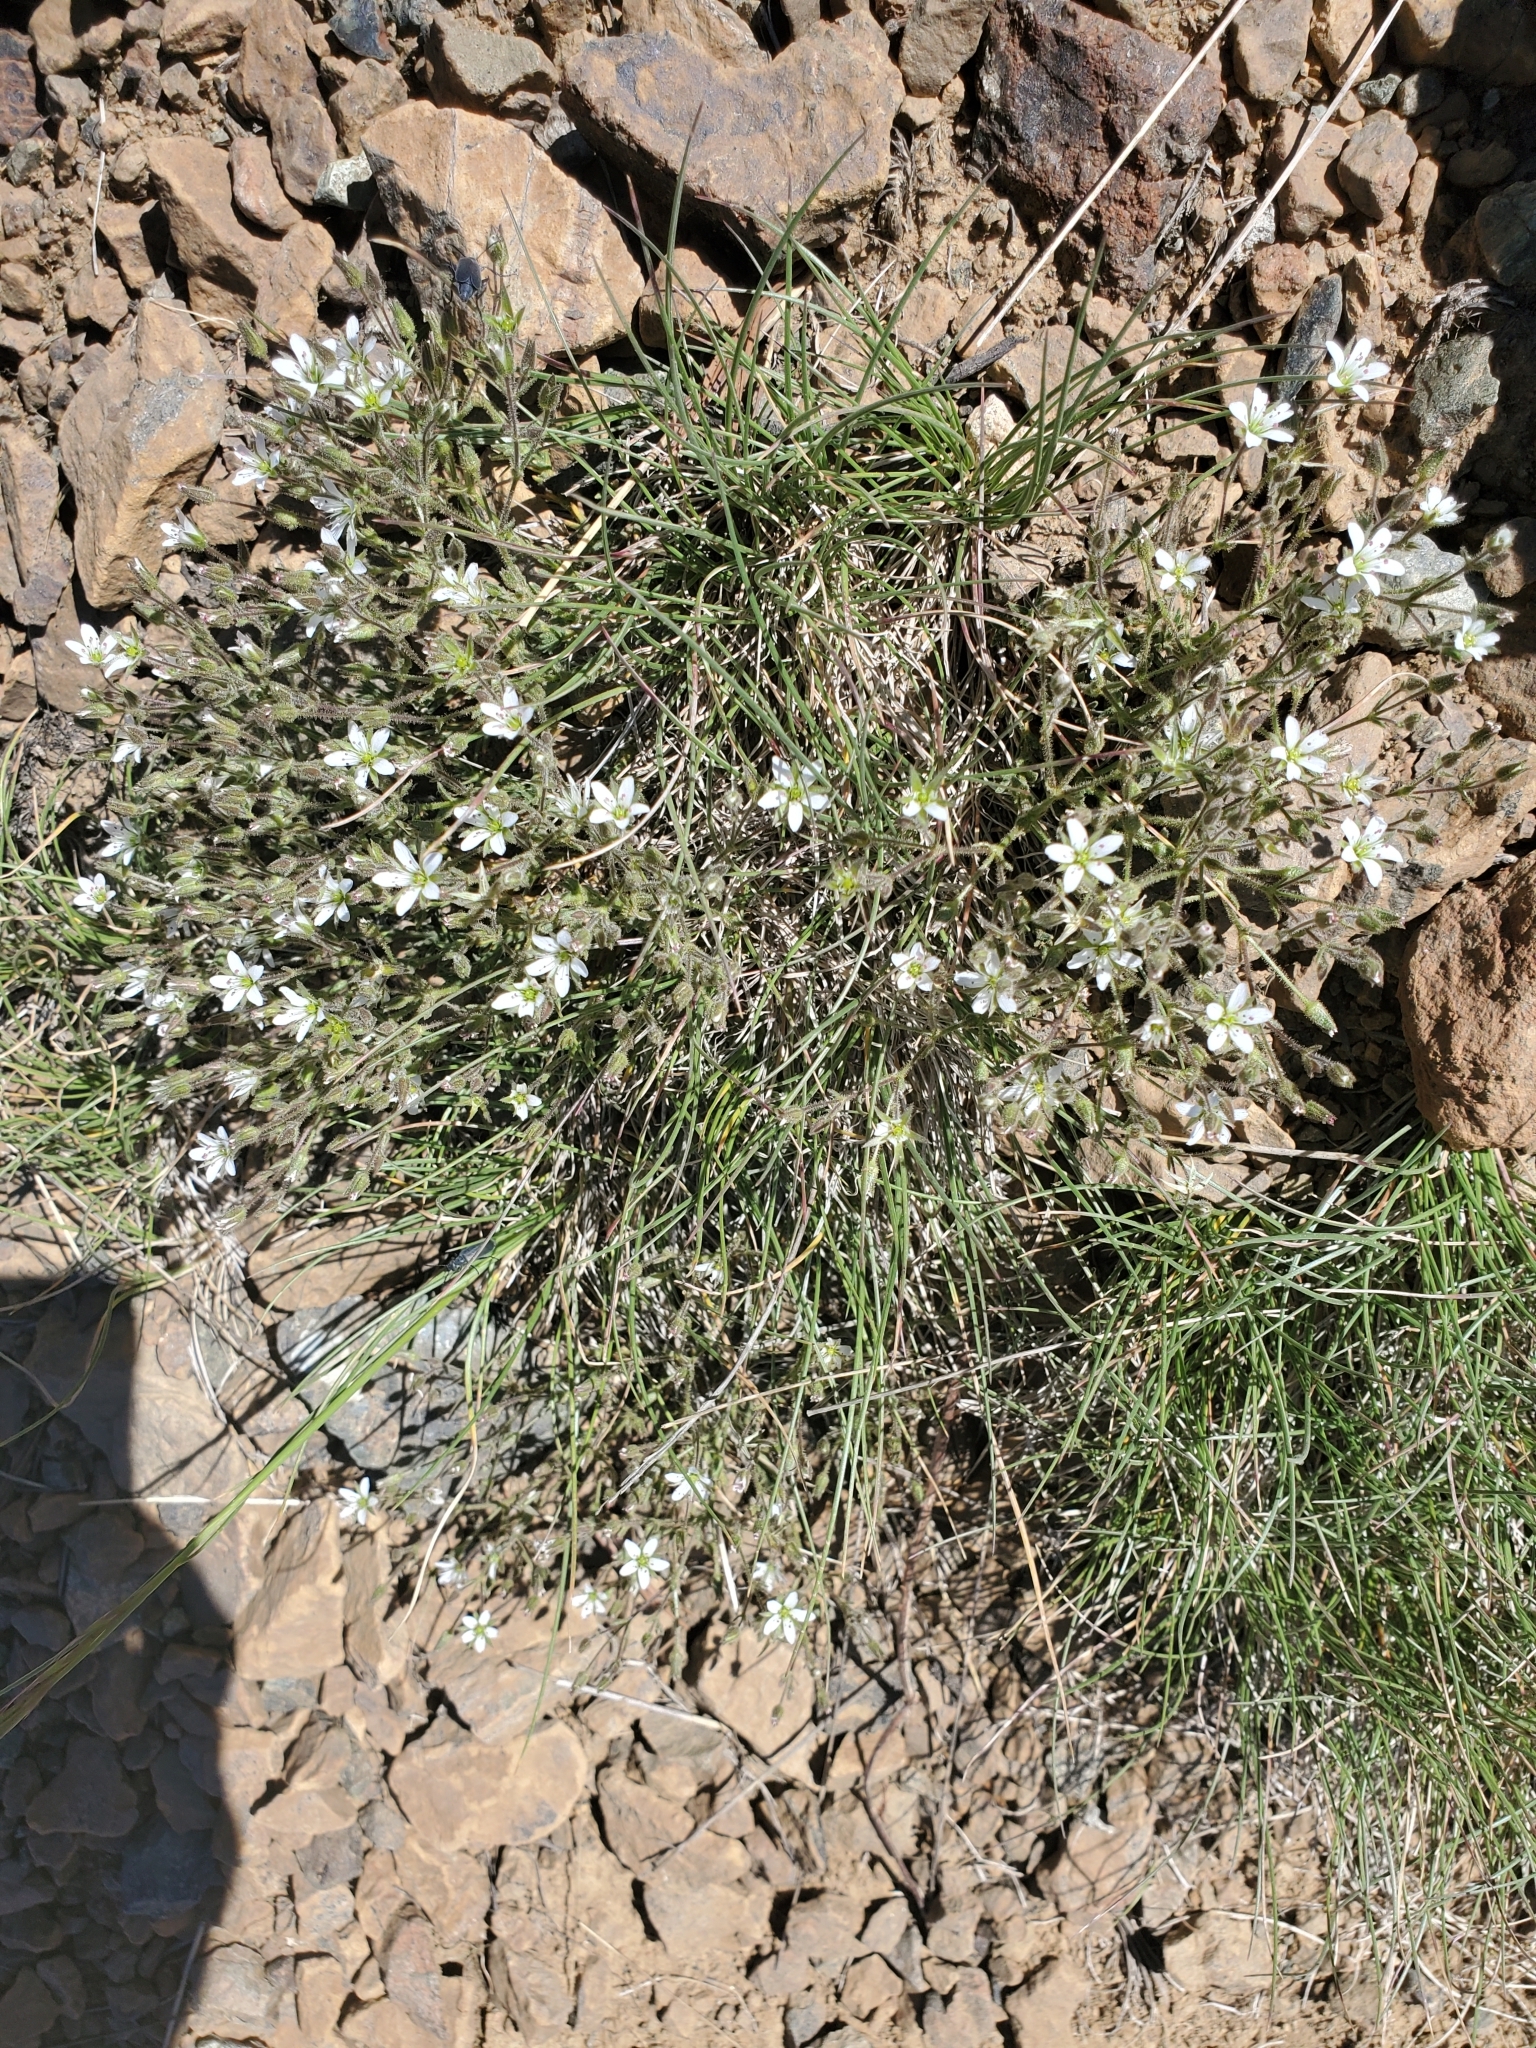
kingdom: Plantae
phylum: Tracheophyta
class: Magnoliopsida
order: Caryophyllales
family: Caryophyllaceae
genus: Sabulina
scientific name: Sabulina nuttallii
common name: Nuttall's stitchwort
